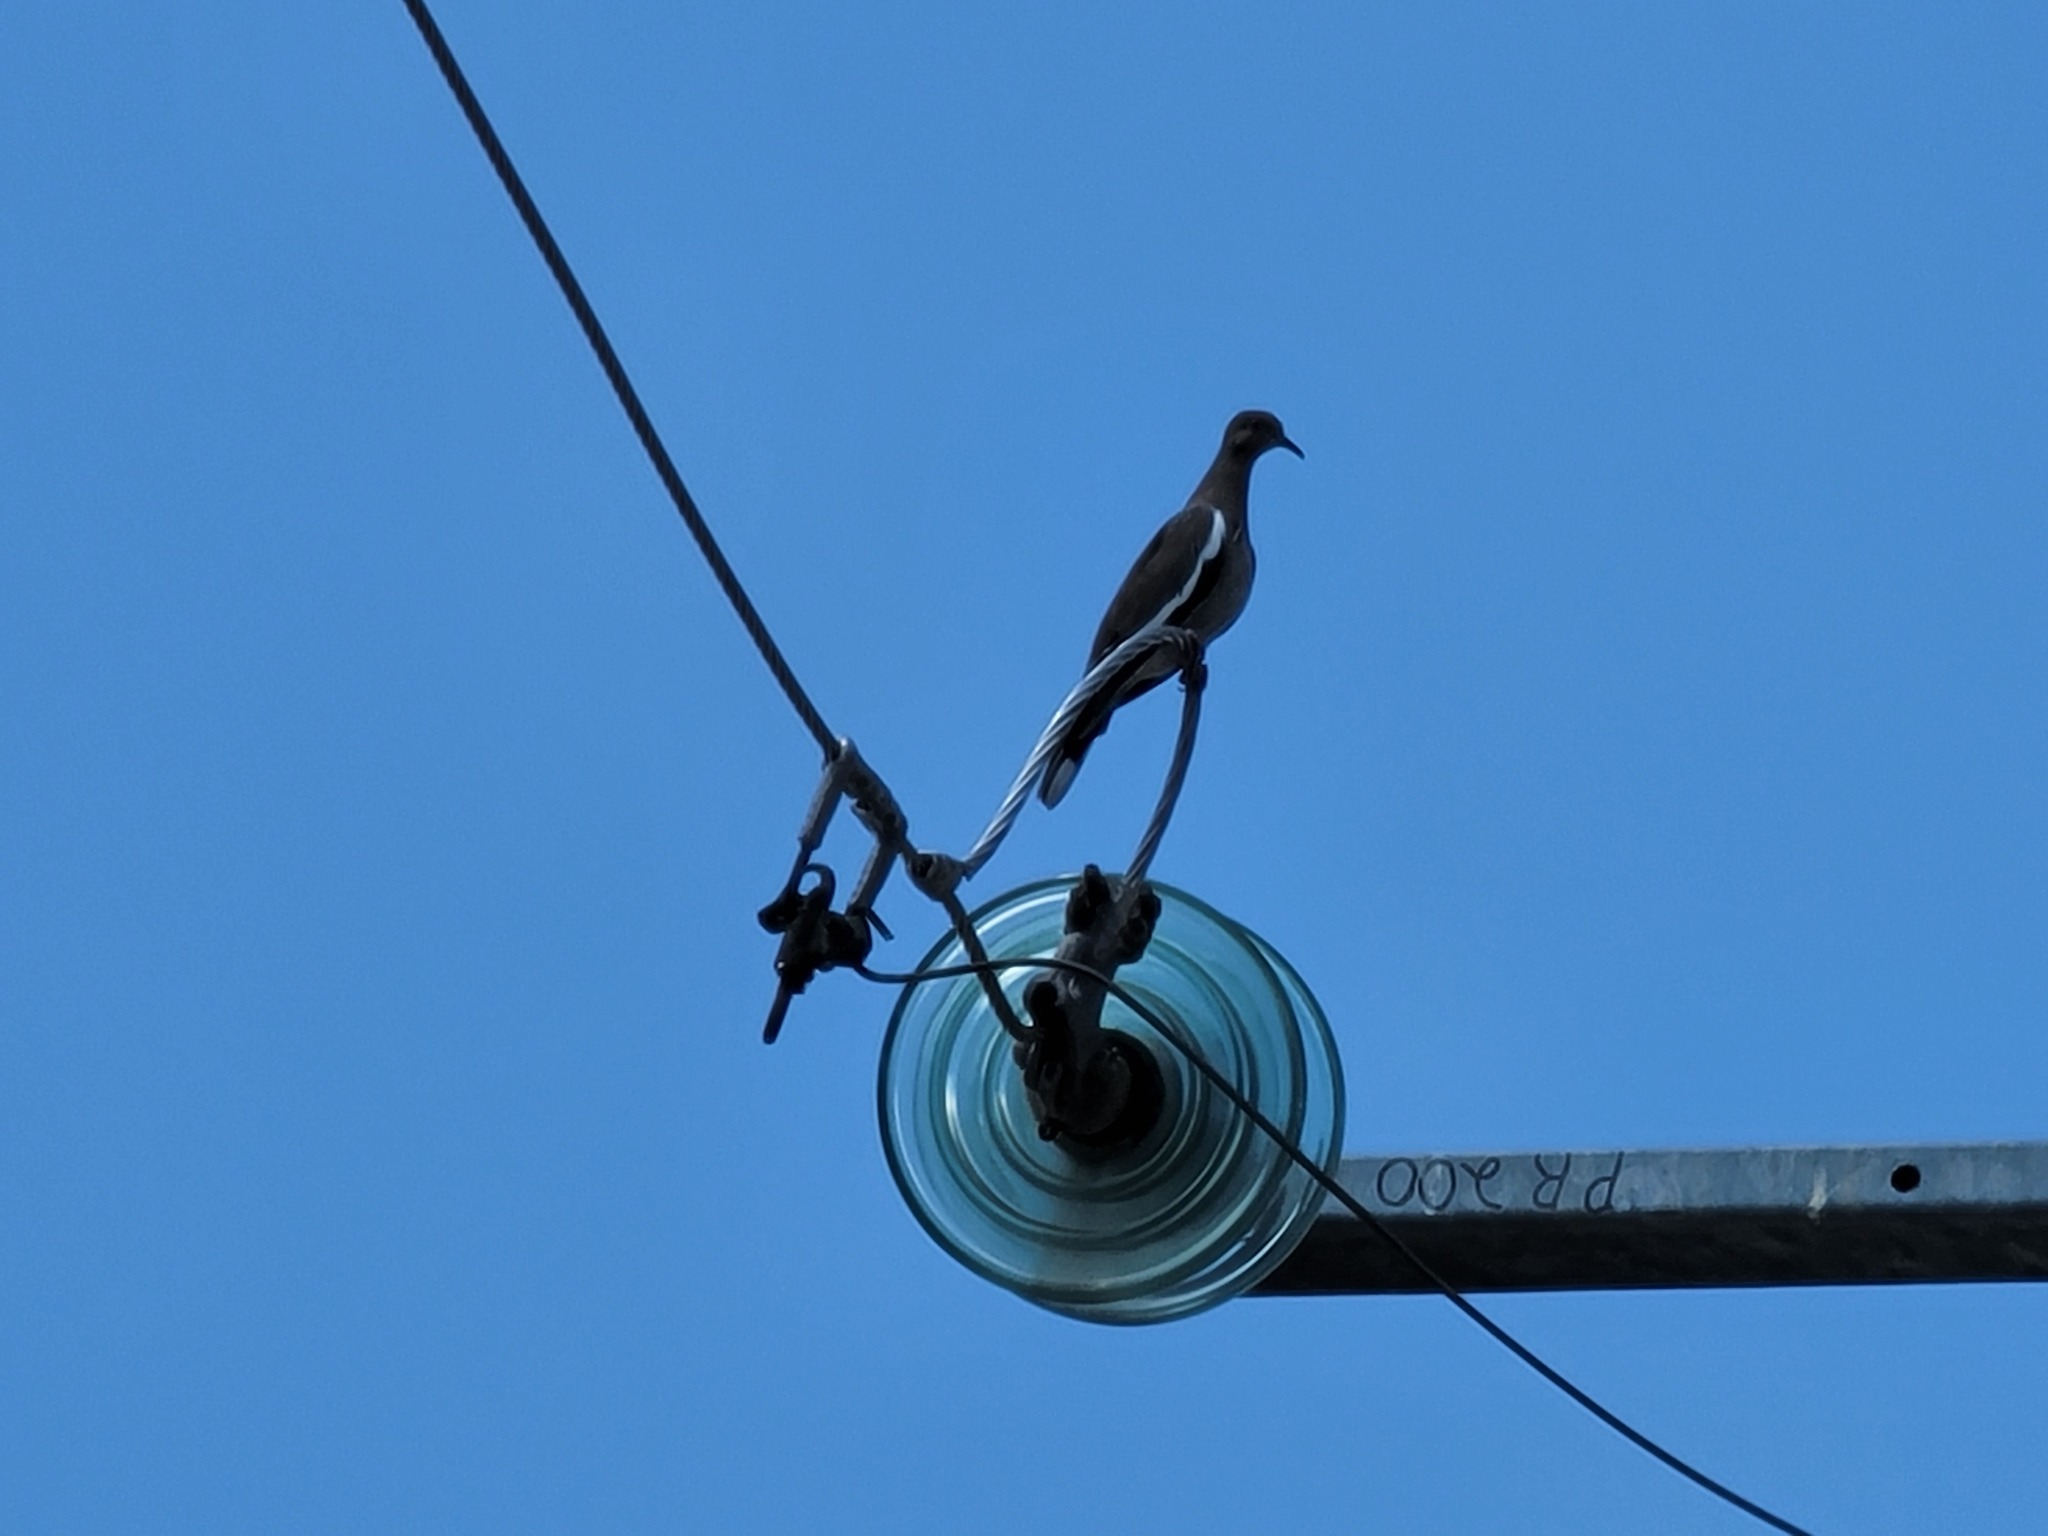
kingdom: Animalia
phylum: Chordata
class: Aves
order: Columbiformes
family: Columbidae
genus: Zenaida
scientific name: Zenaida asiatica
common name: White-winged dove
